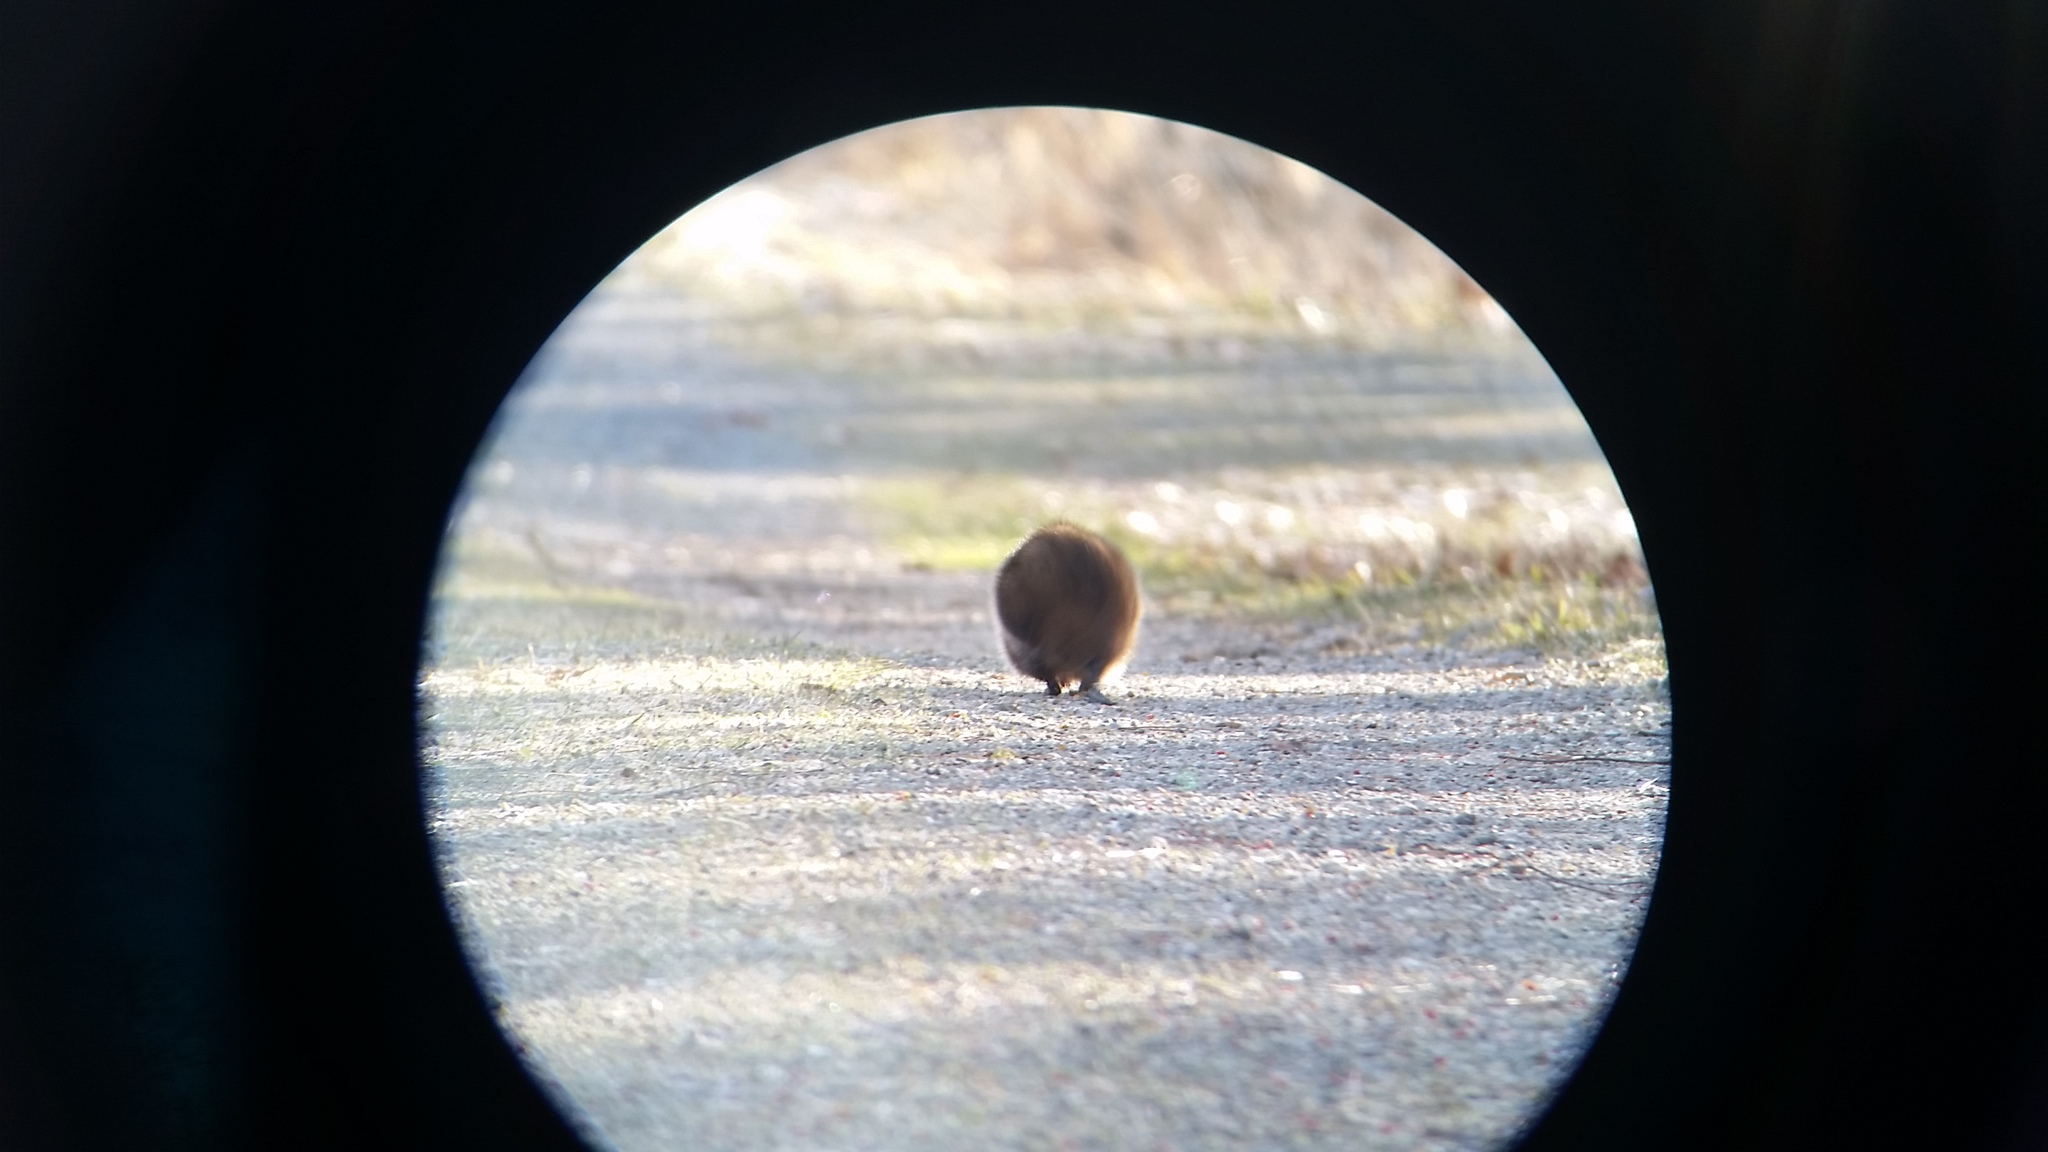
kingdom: Animalia
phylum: Chordata
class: Mammalia
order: Rodentia
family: Cricetidae
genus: Ondatra
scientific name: Ondatra zibethicus
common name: Muskrat
